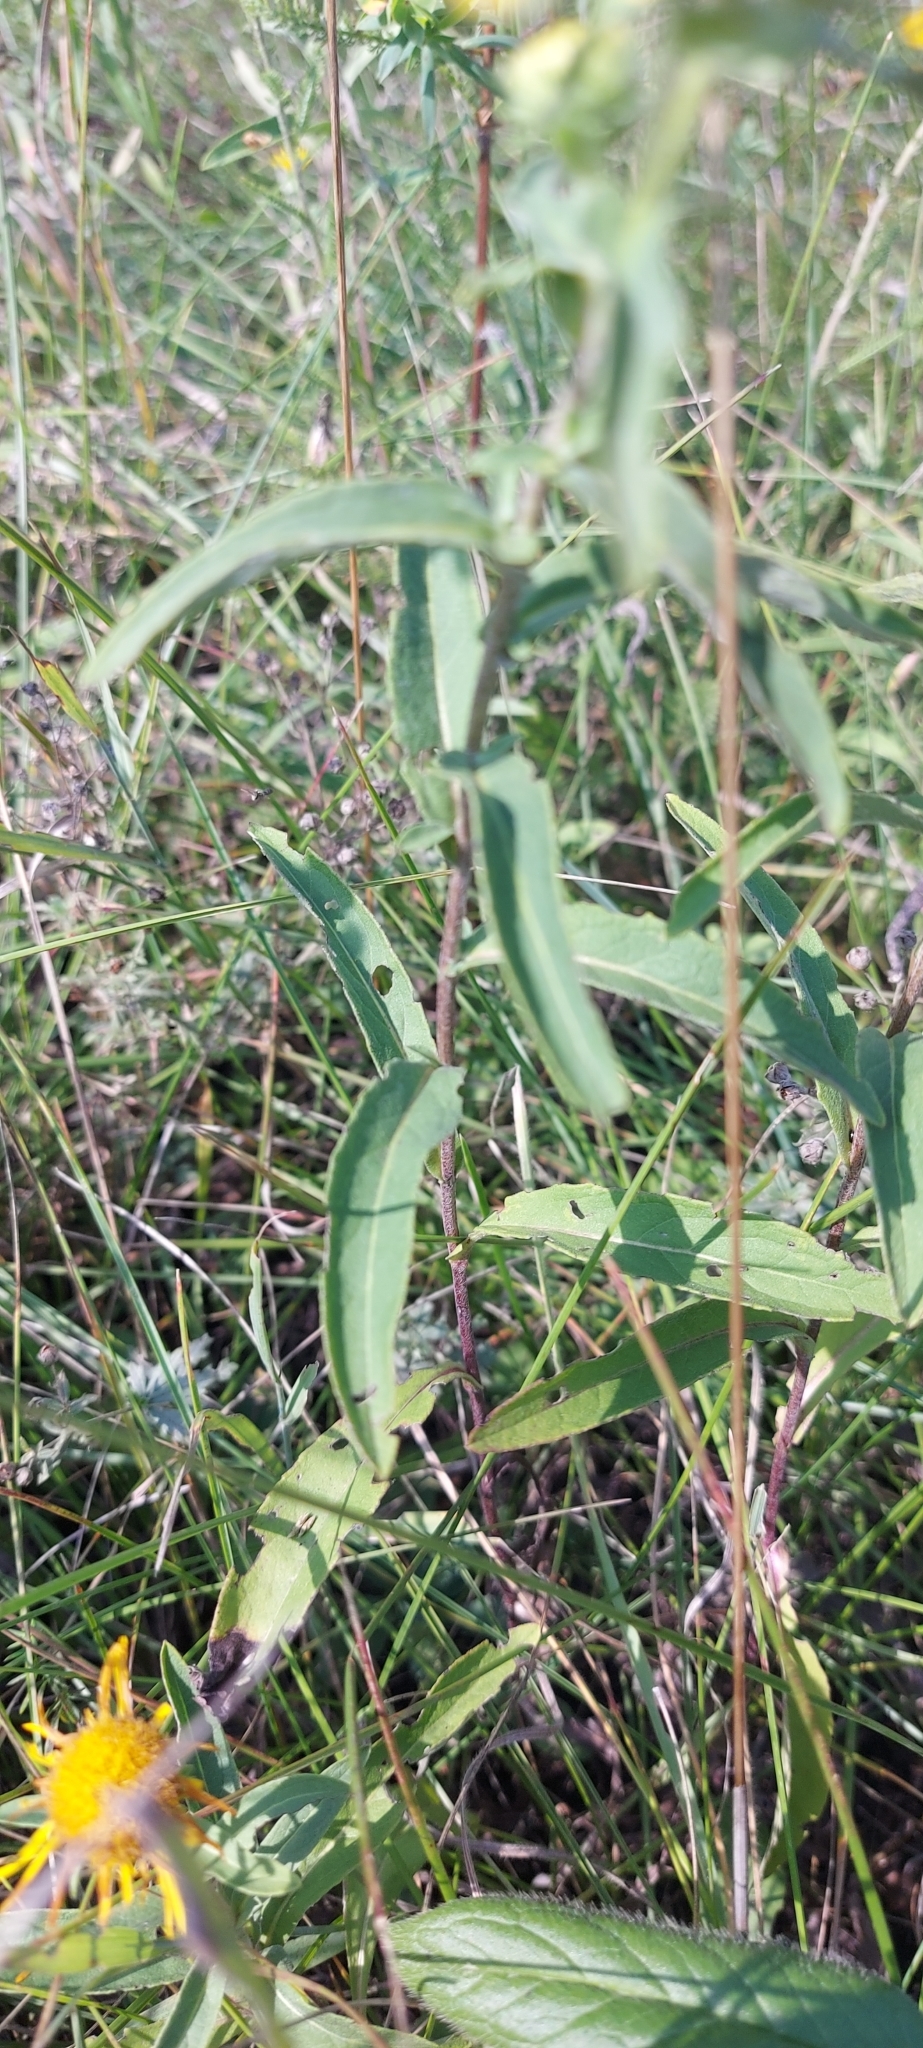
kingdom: Plantae
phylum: Tracheophyta
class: Magnoliopsida
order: Asterales
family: Asteraceae
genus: Pentanema
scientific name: Pentanema britannicum
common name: British elecampane
